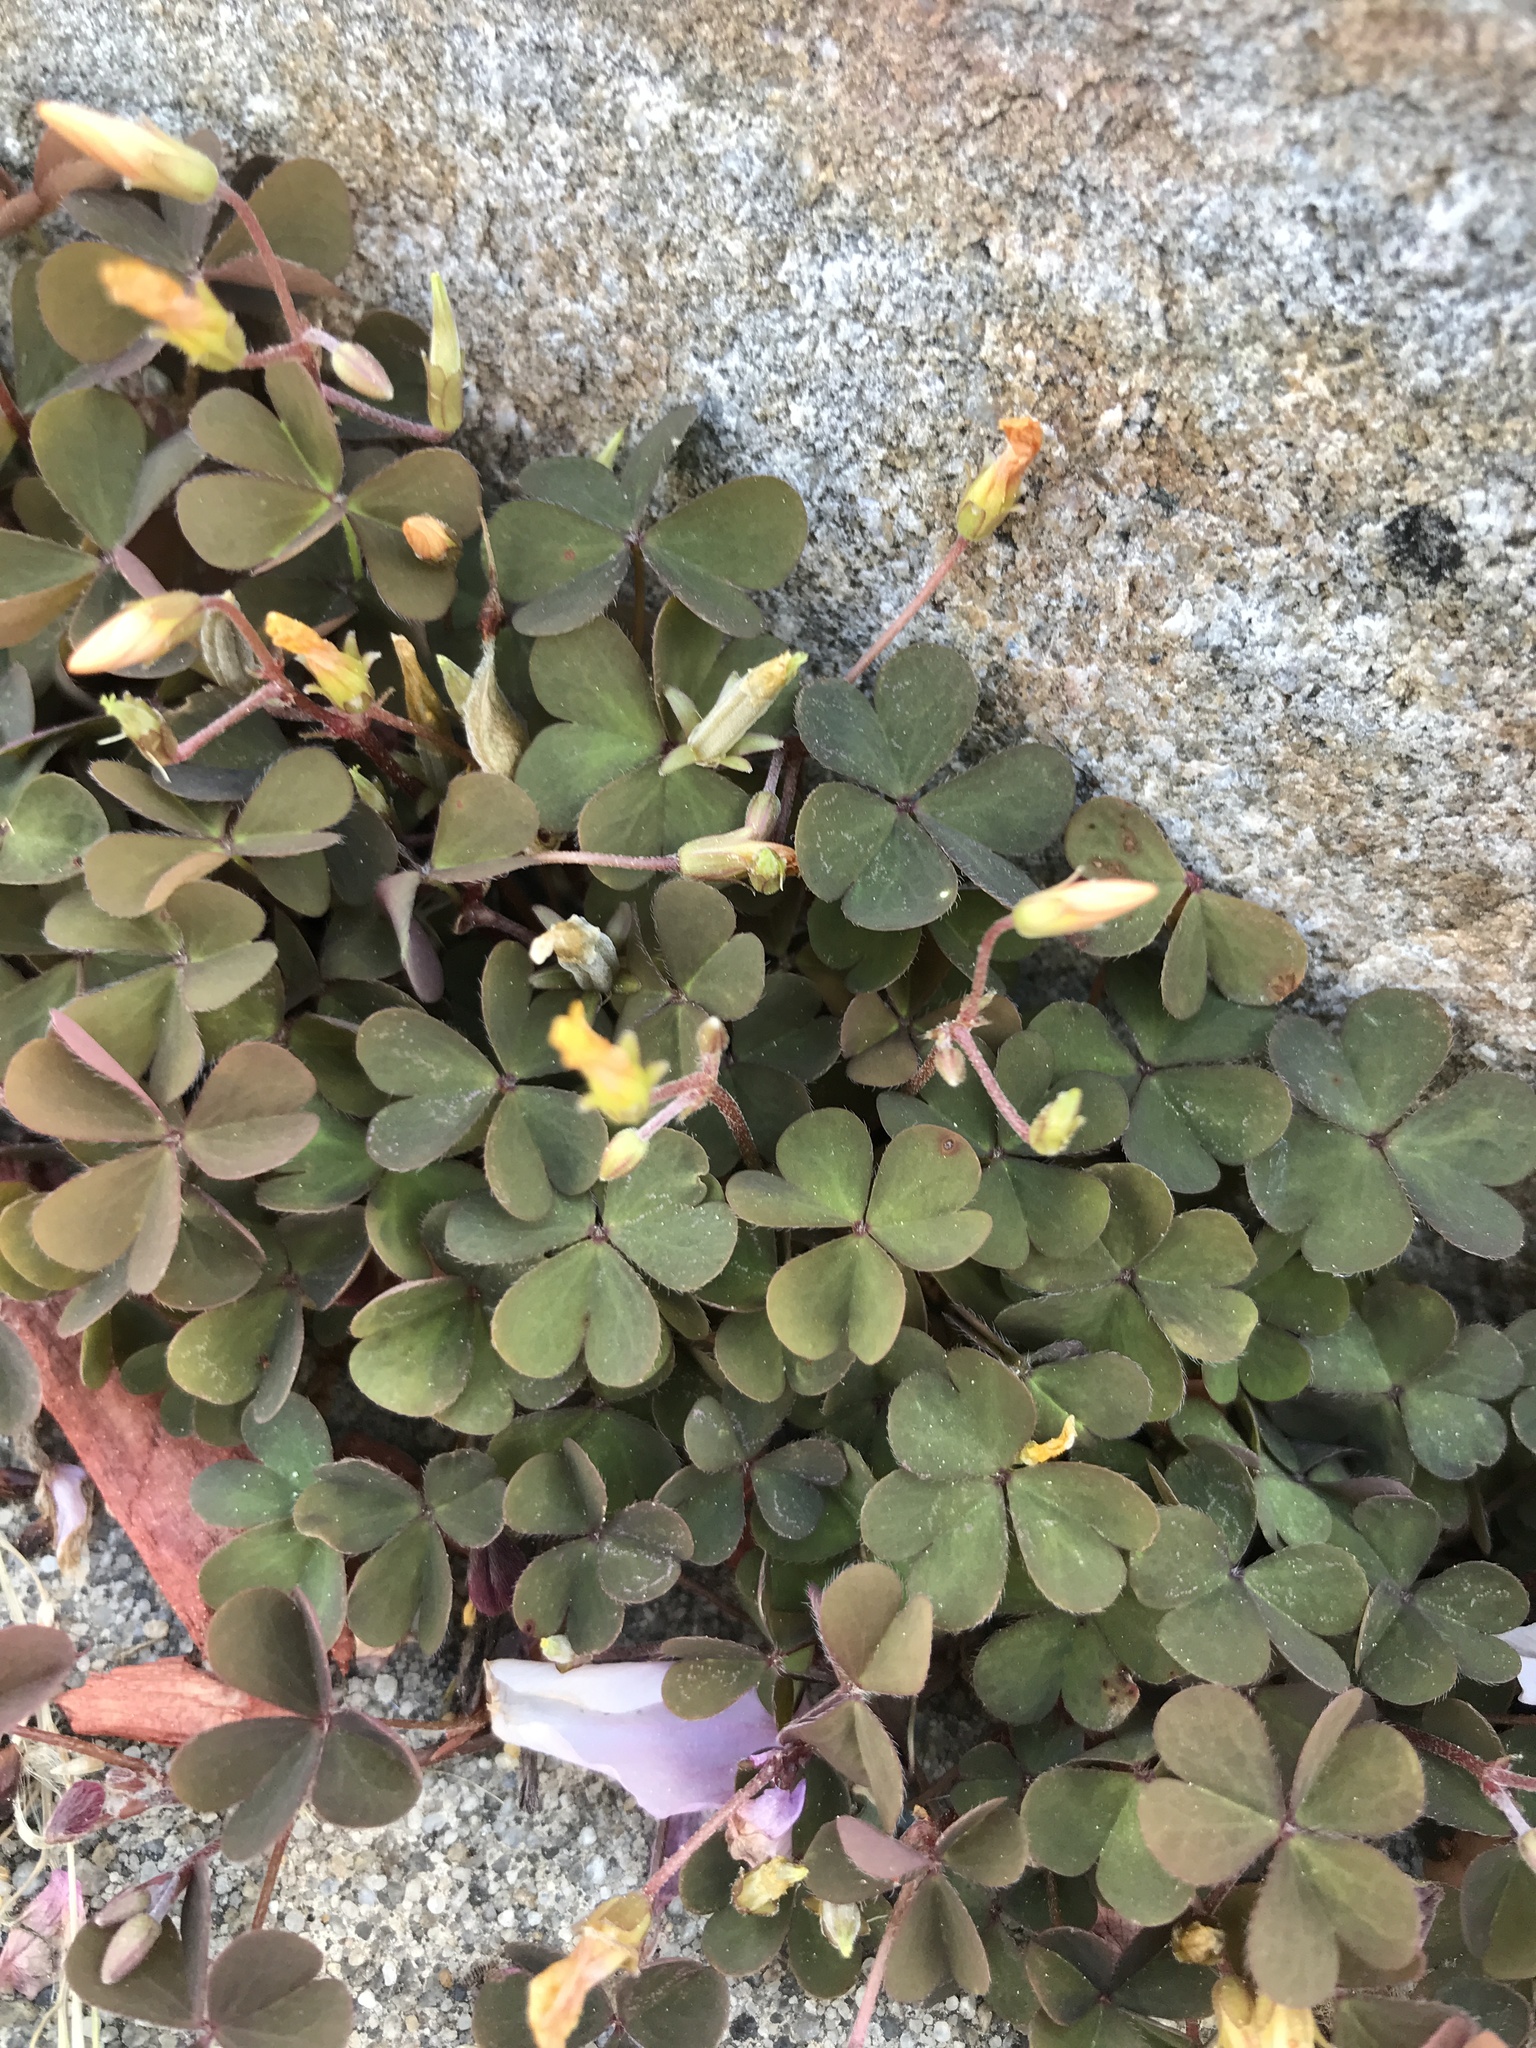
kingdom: Plantae
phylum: Tracheophyta
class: Magnoliopsida
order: Oxalidales
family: Oxalidaceae
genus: Oxalis
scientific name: Oxalis corniculata
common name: Procumbent yellow-sorrel
